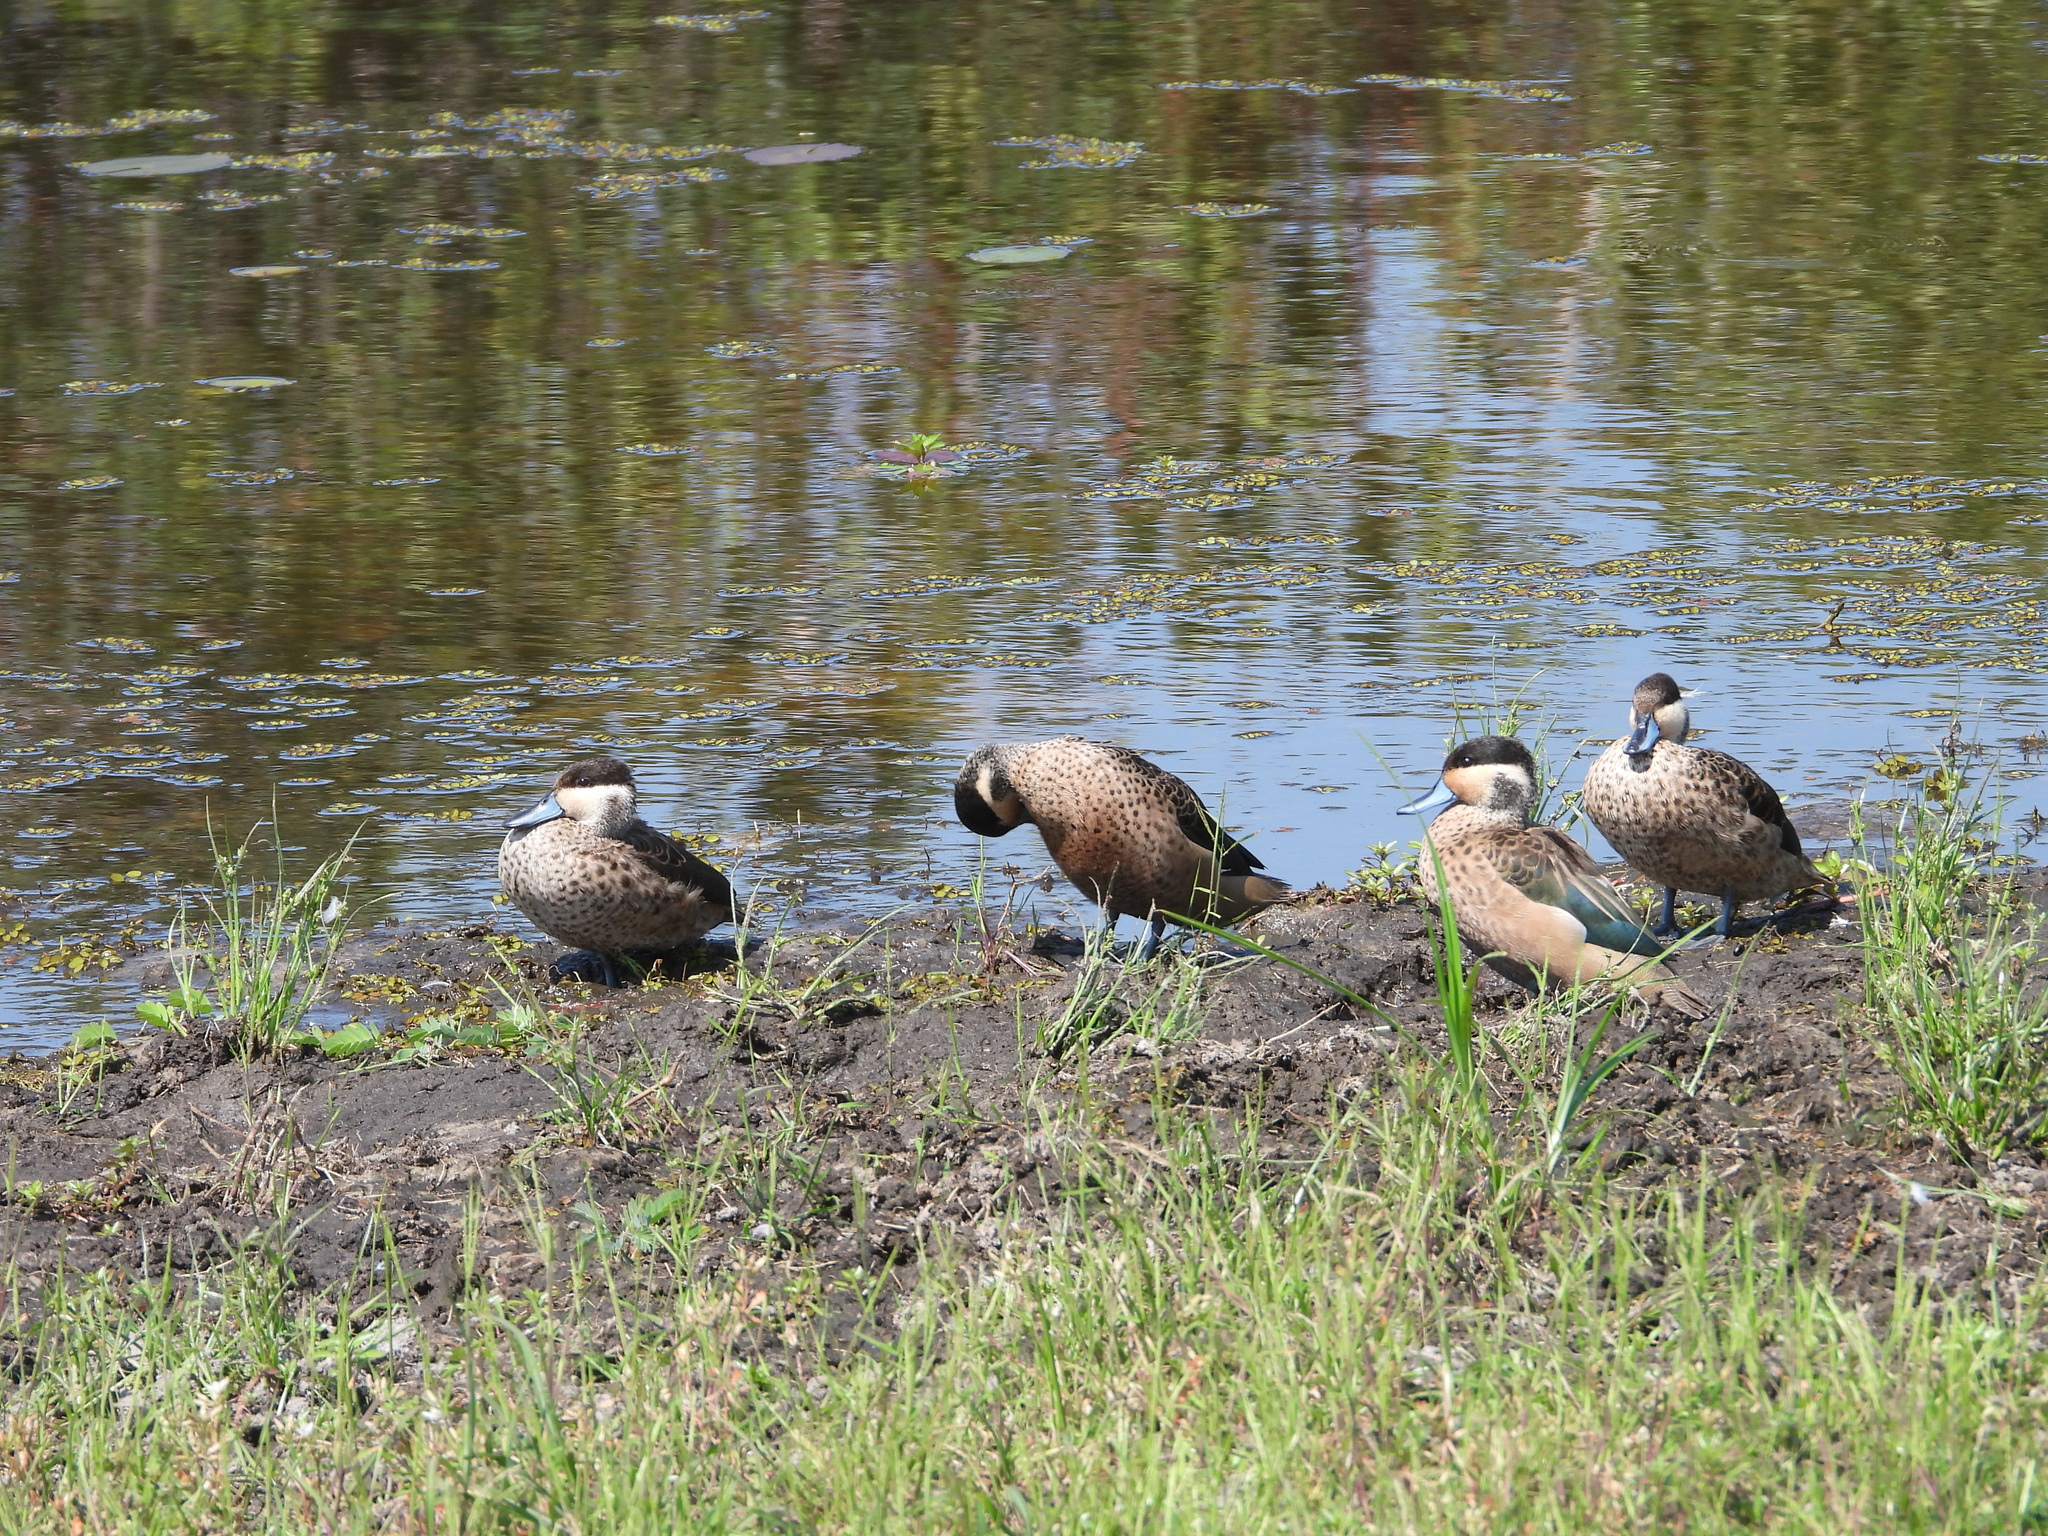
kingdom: Animalia
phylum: Chordata
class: Aves
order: Anseriformes
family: Anatidae
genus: Spatula
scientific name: Spatula hottentota
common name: Blue-billed teal
